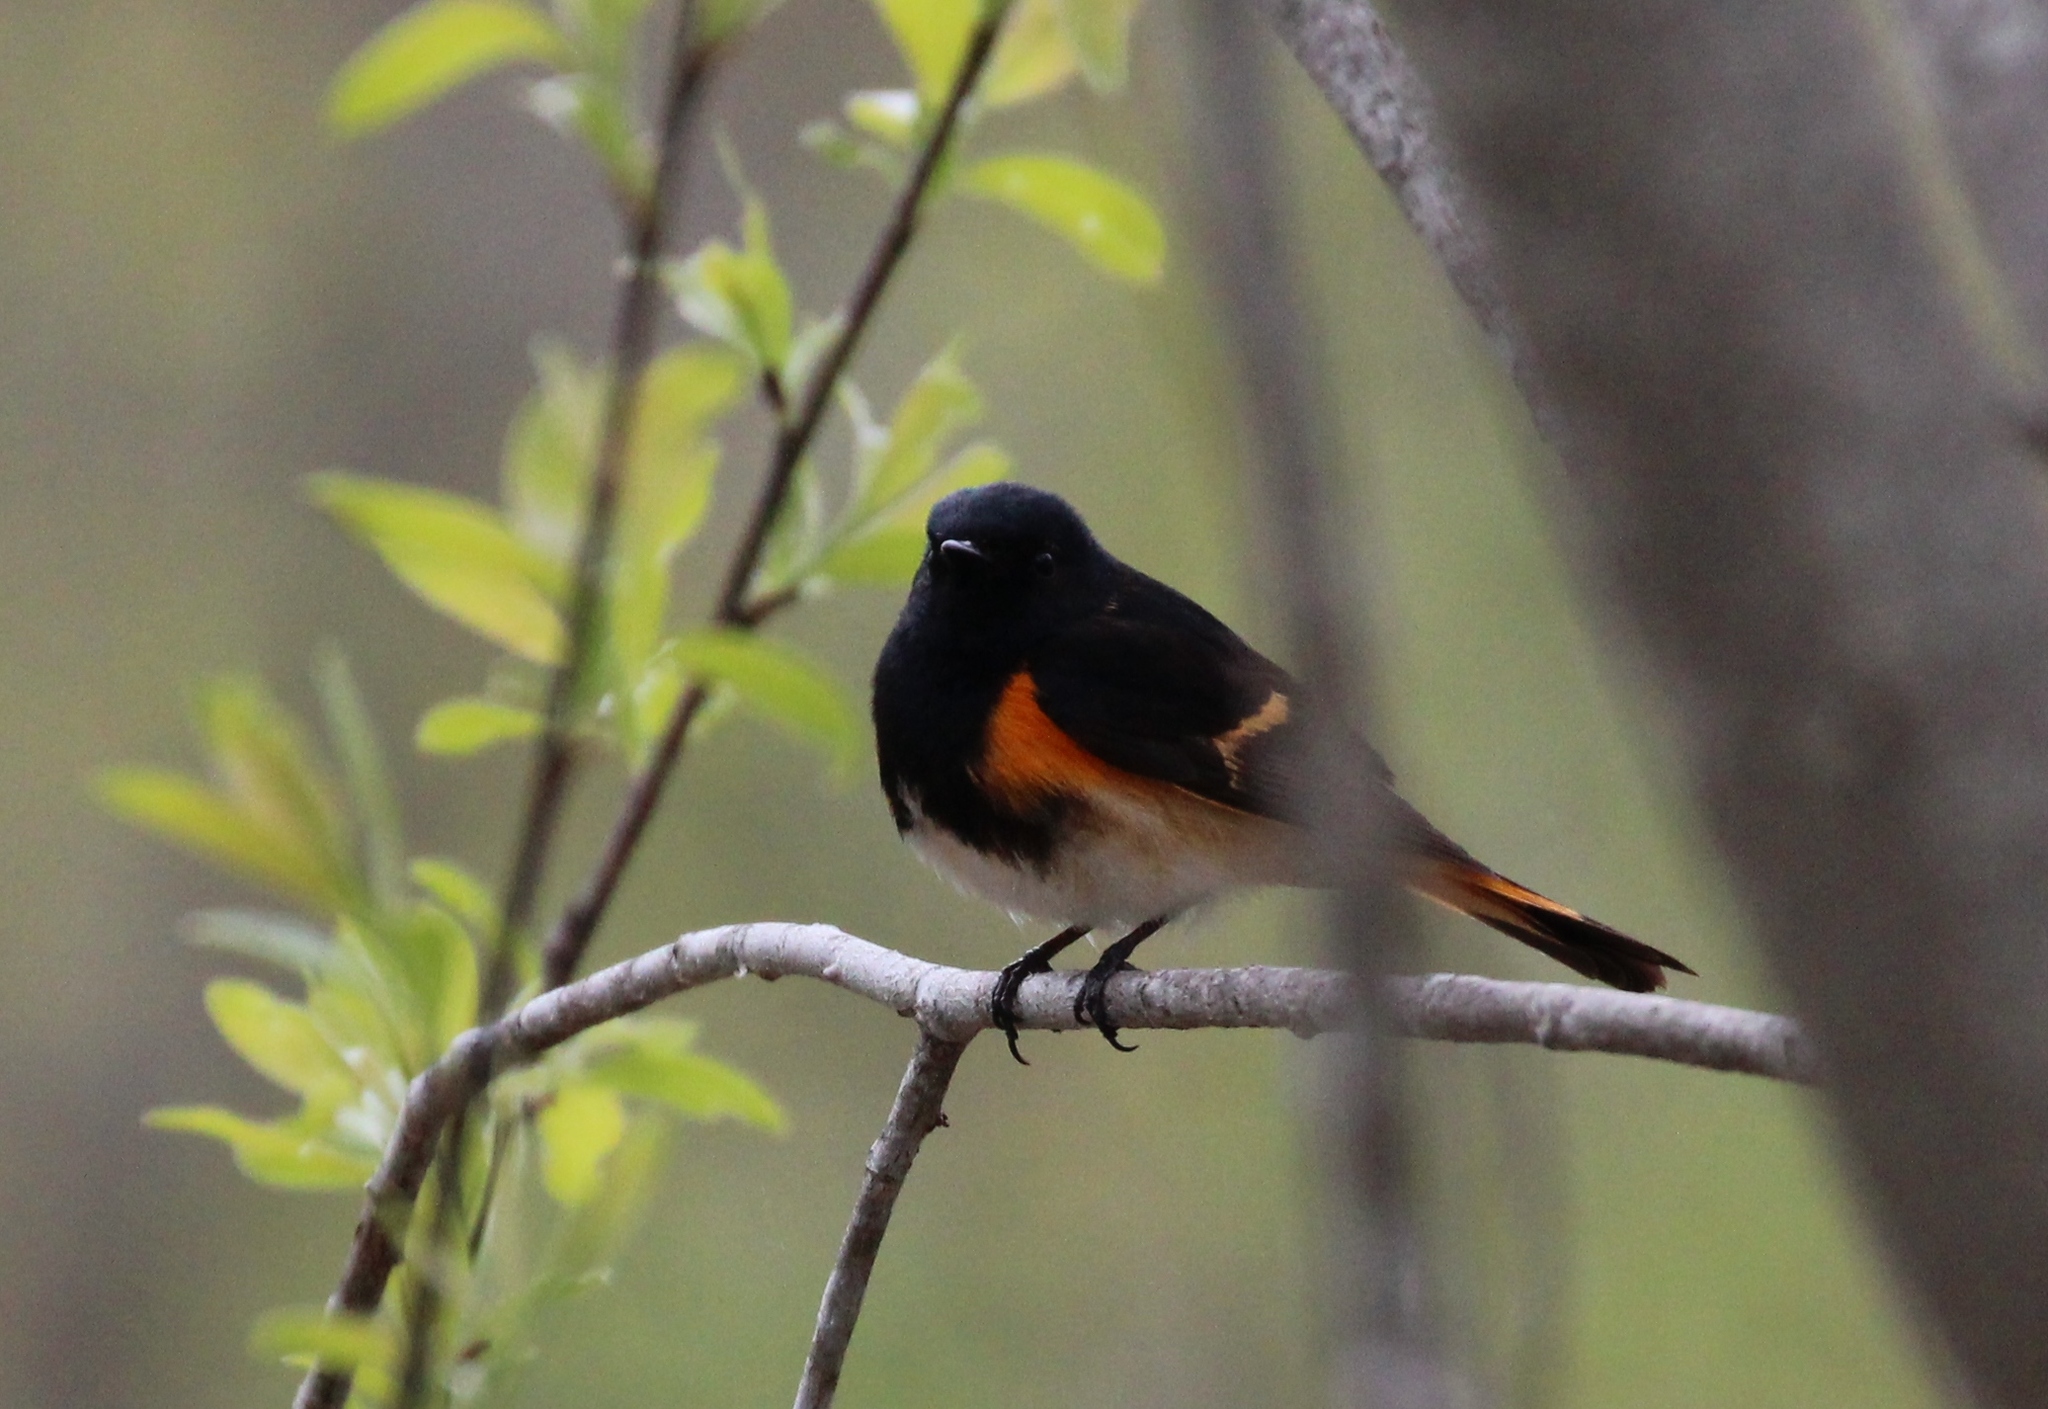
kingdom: Animalia
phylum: Chordata
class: Aves
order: Passeriformes
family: Parulidae
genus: Setophaga
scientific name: Setophaga ruticilla
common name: American redstart
